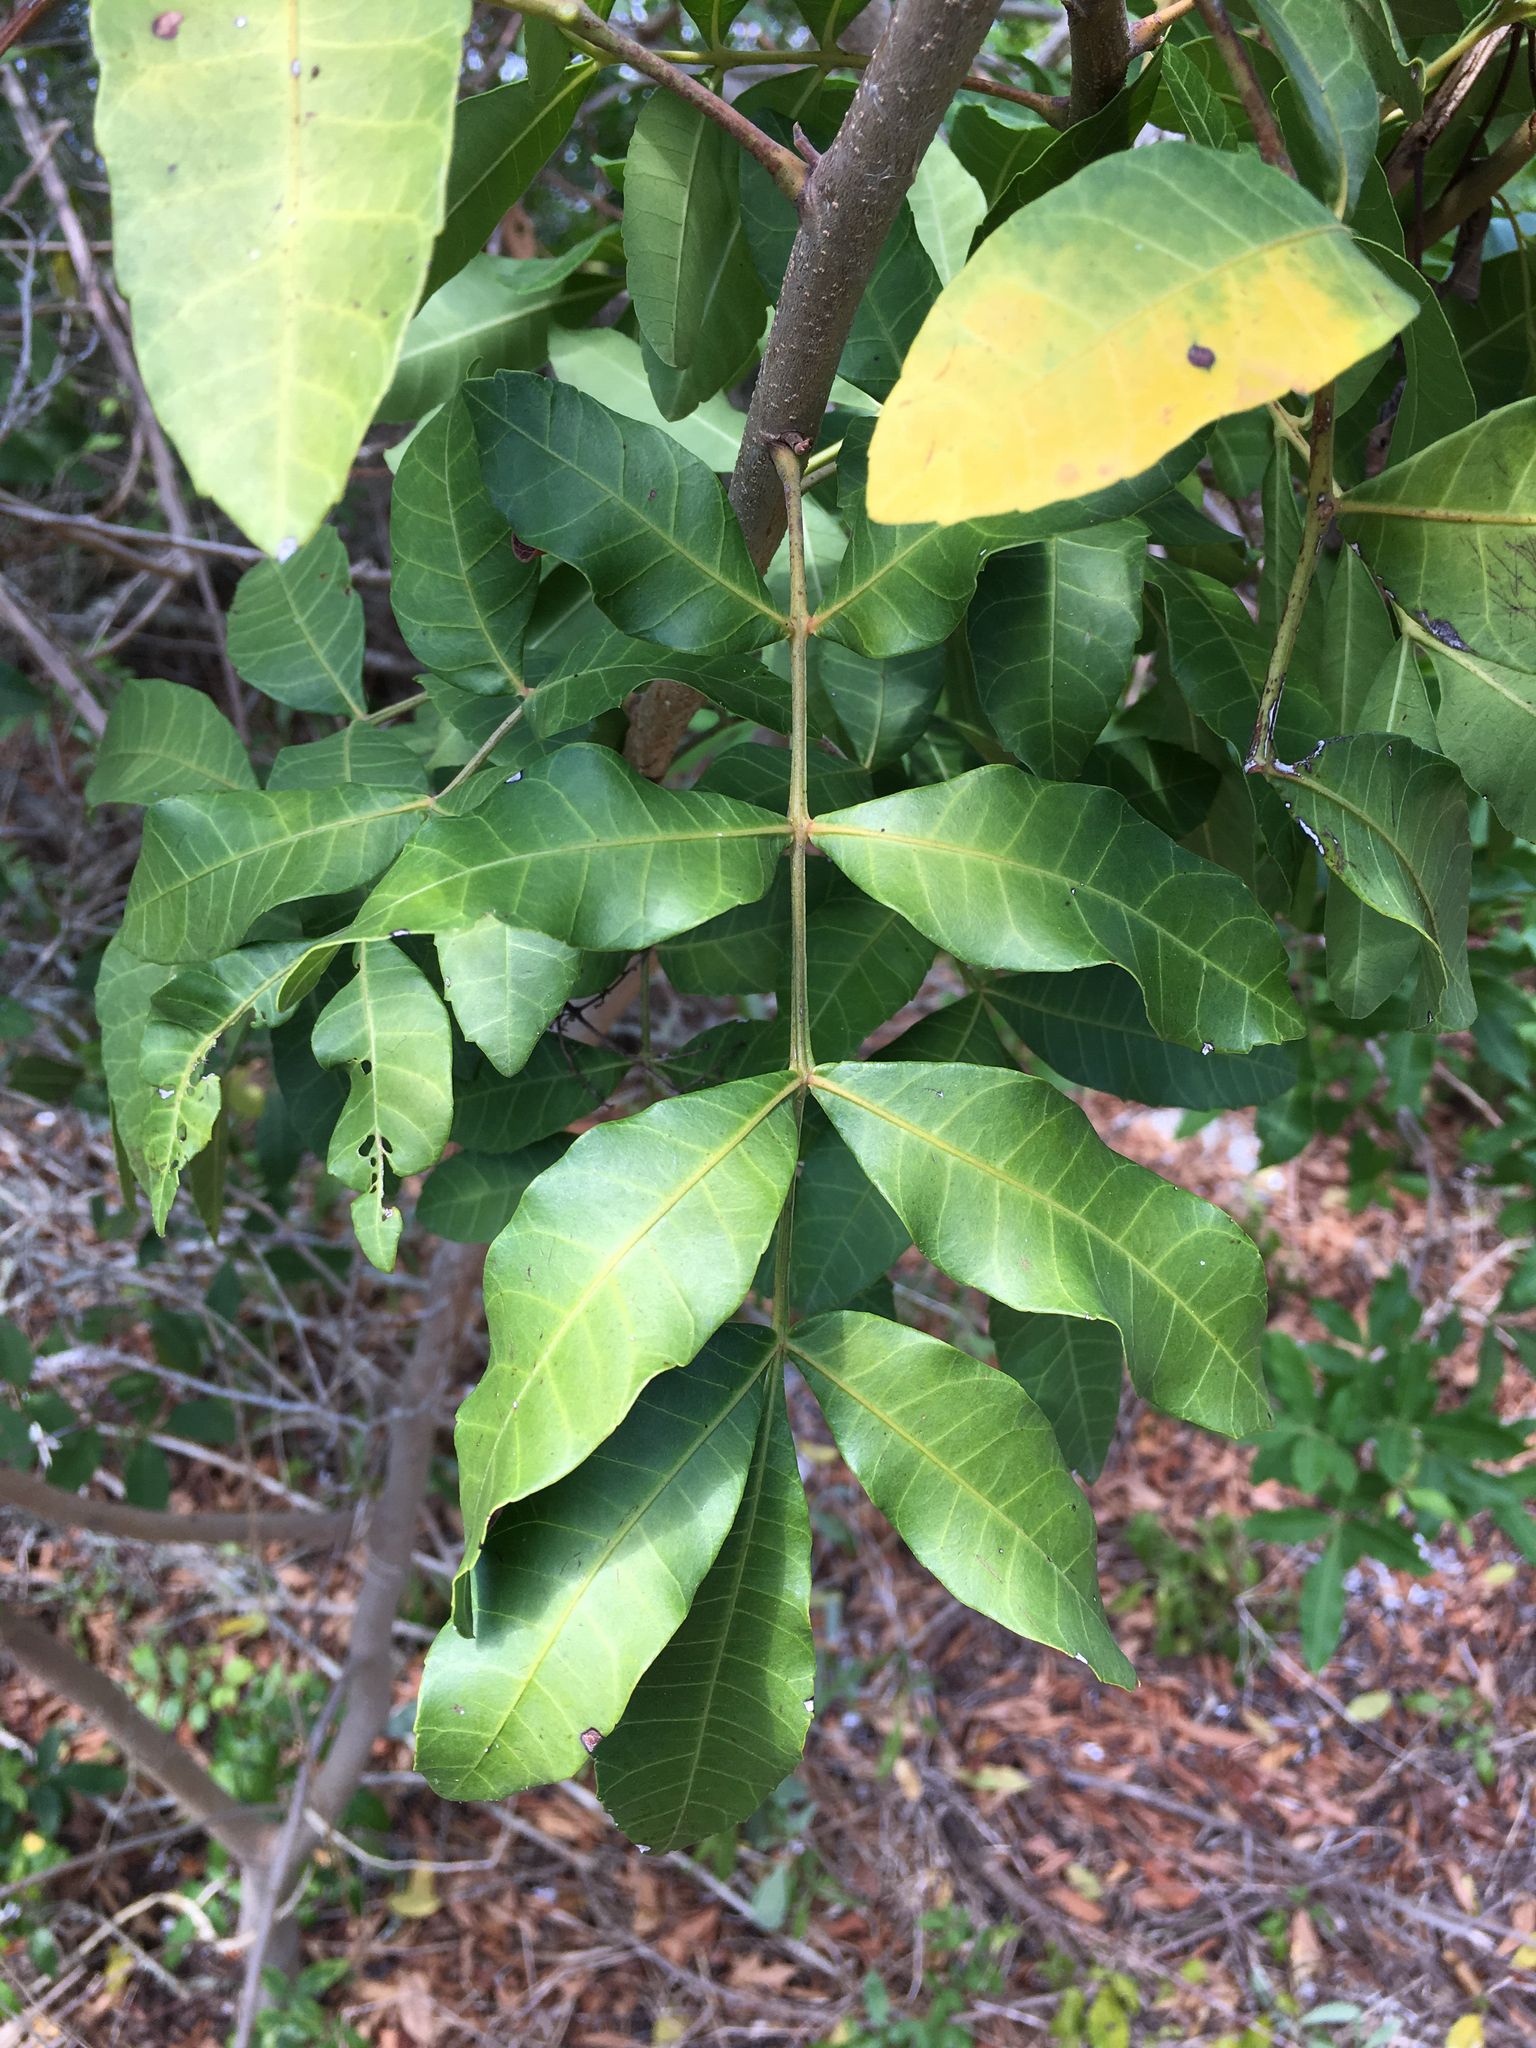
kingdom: Plantae
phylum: Tracheophyta
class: Magnoliopsida
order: Sapindales
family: Anacardiaceae
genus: Schinus
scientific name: Schinus terebinthifolia
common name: Brazilian peppertree
